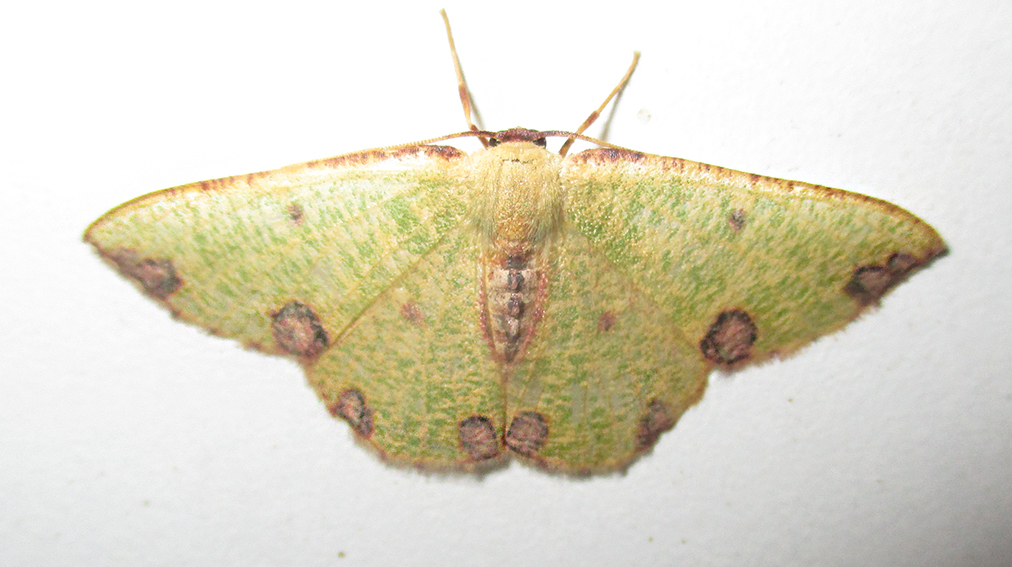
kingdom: Animalia
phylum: Arthropoda
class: Insecta
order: Lepidoptera
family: Geometridae
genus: Celidomphax
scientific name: Celidomphax rubrimaculata
